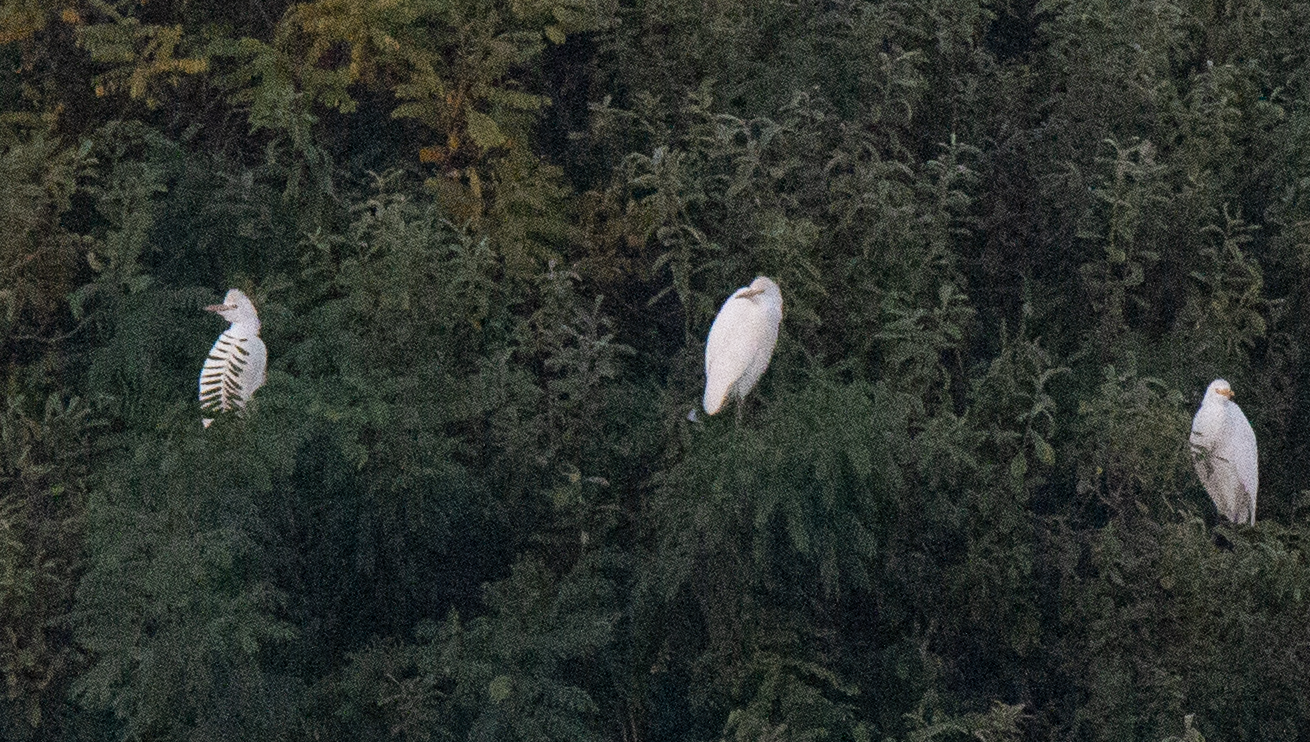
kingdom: Animalia
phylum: Chordata
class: Aves
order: Pelecaniformes
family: Ardeidae
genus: Bubulcus
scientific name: Bubulcus ibis
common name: Cattle egret
